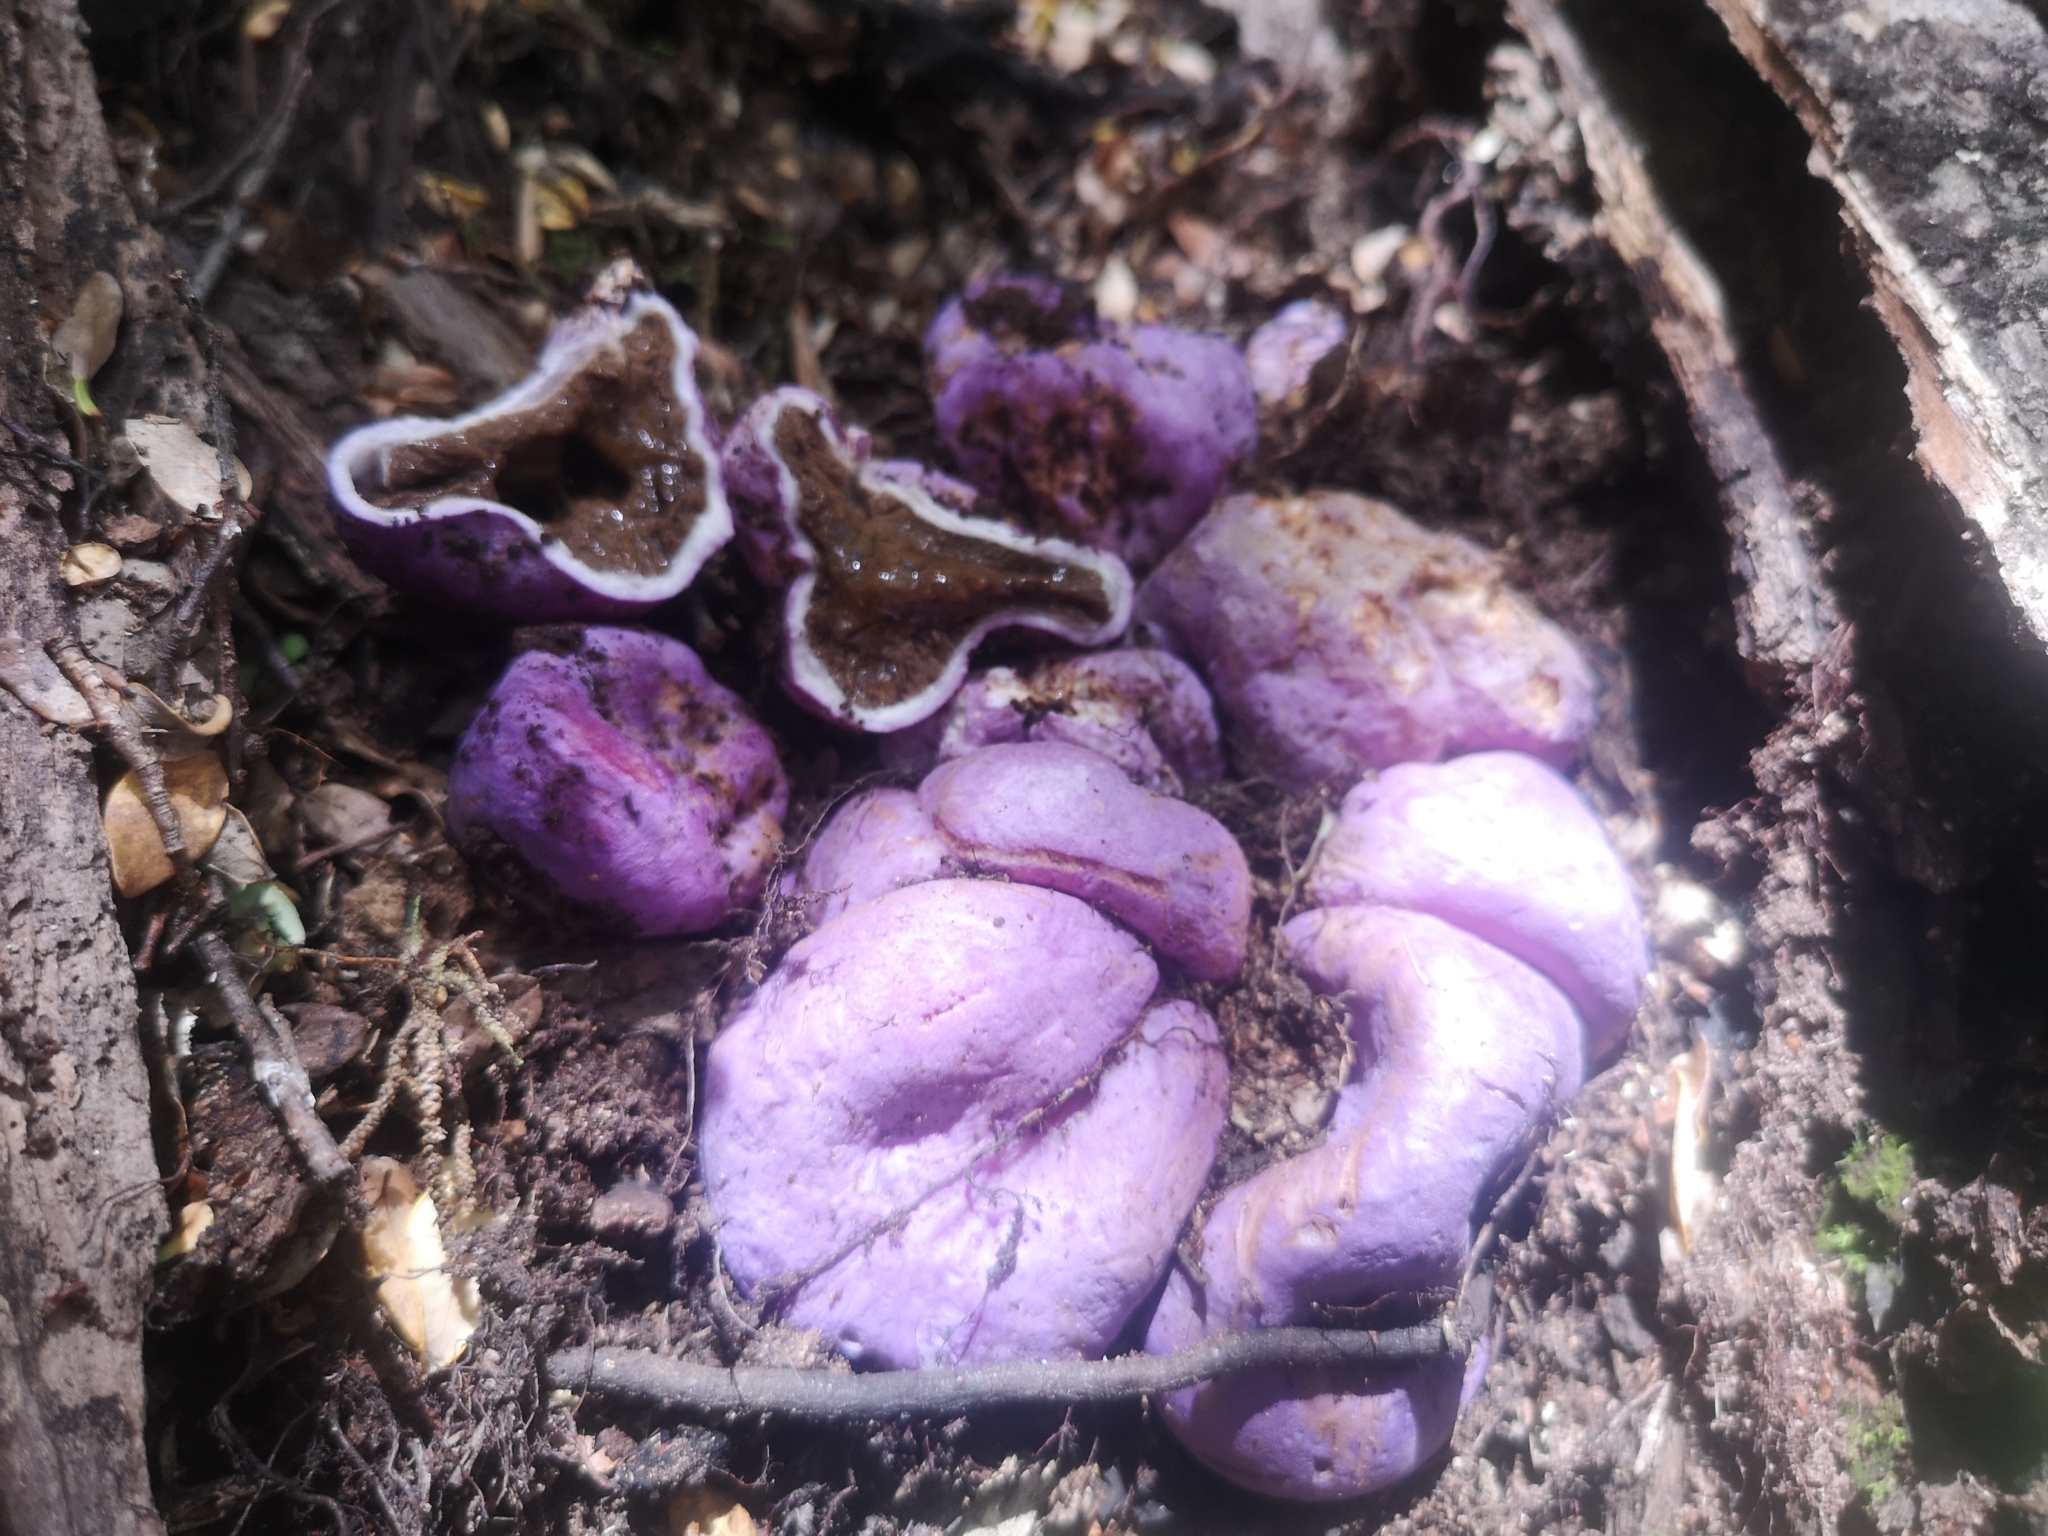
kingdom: Fungi
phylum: Basidiomycota
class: Agaricomycetes
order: Hysterangiales
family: Gallaceaceae
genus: Gallacea
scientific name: Gallacea scleroderma
